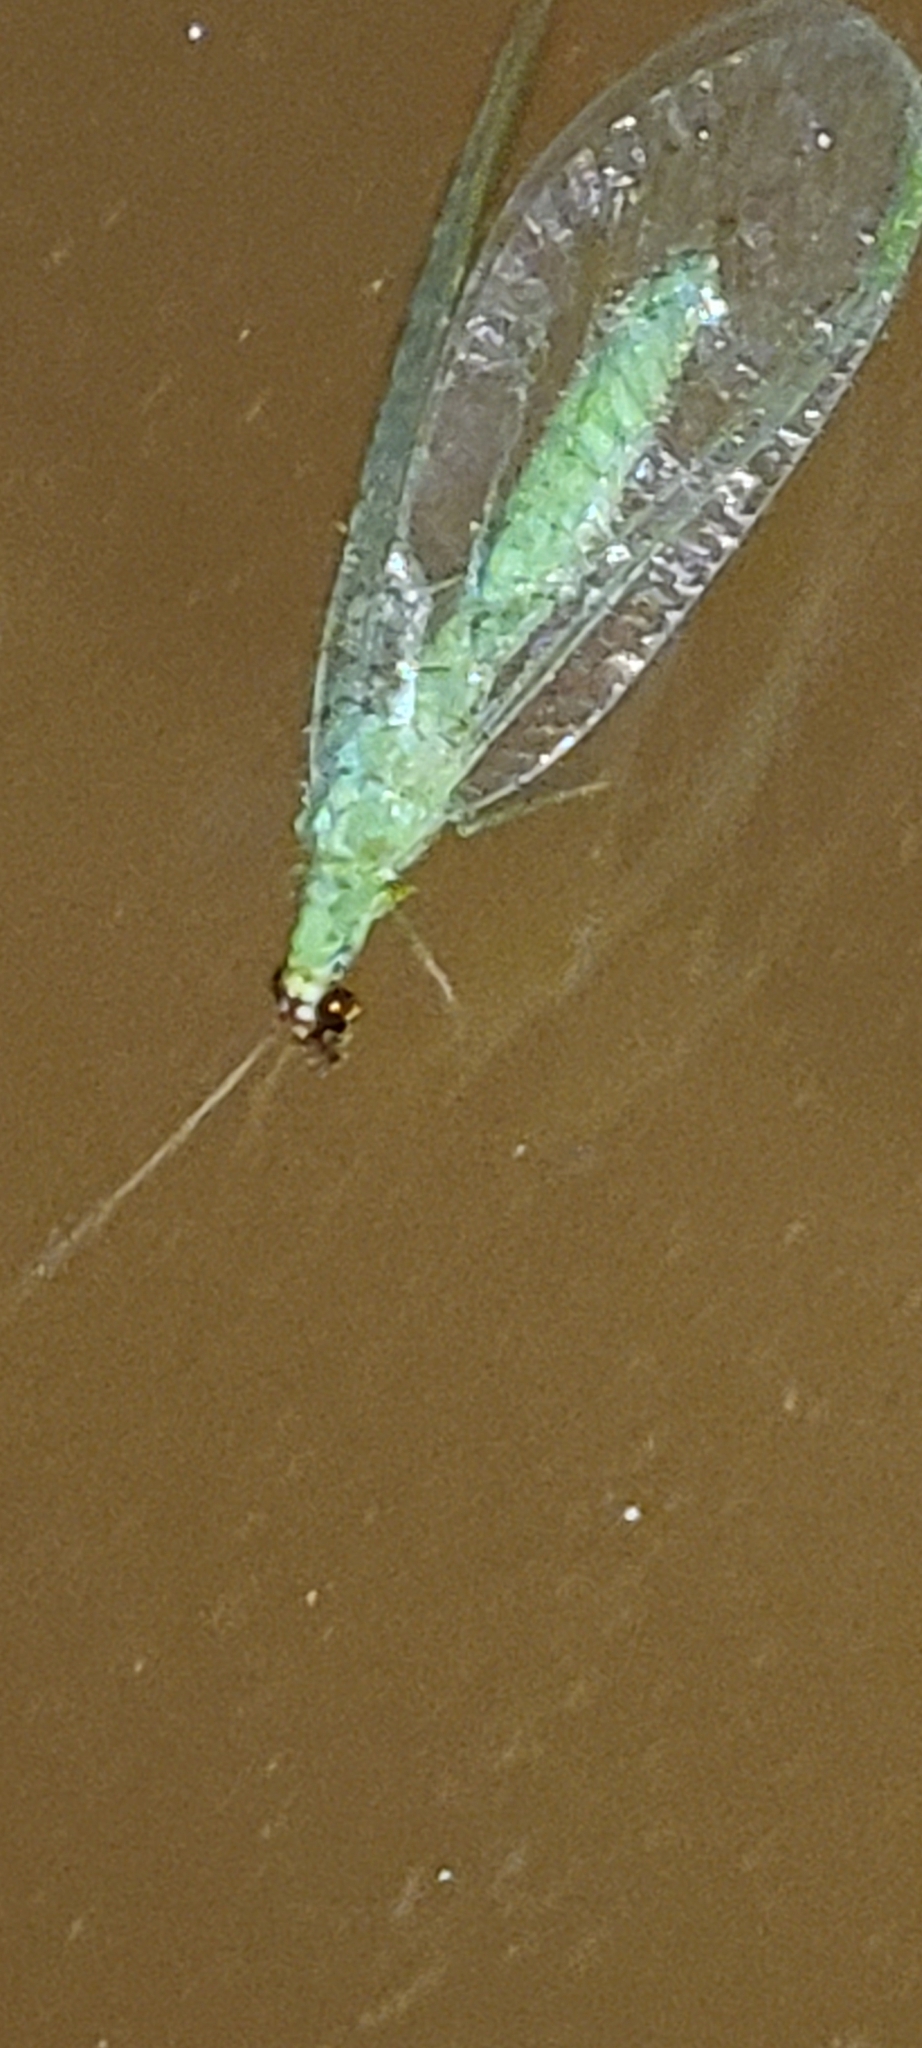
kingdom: Animalia
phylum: Arthropoda
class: Insecta
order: Neuroptera
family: Chrysopidae
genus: Chrysopa
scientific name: Chrysopa oculata
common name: Golden-eyed lacewing
